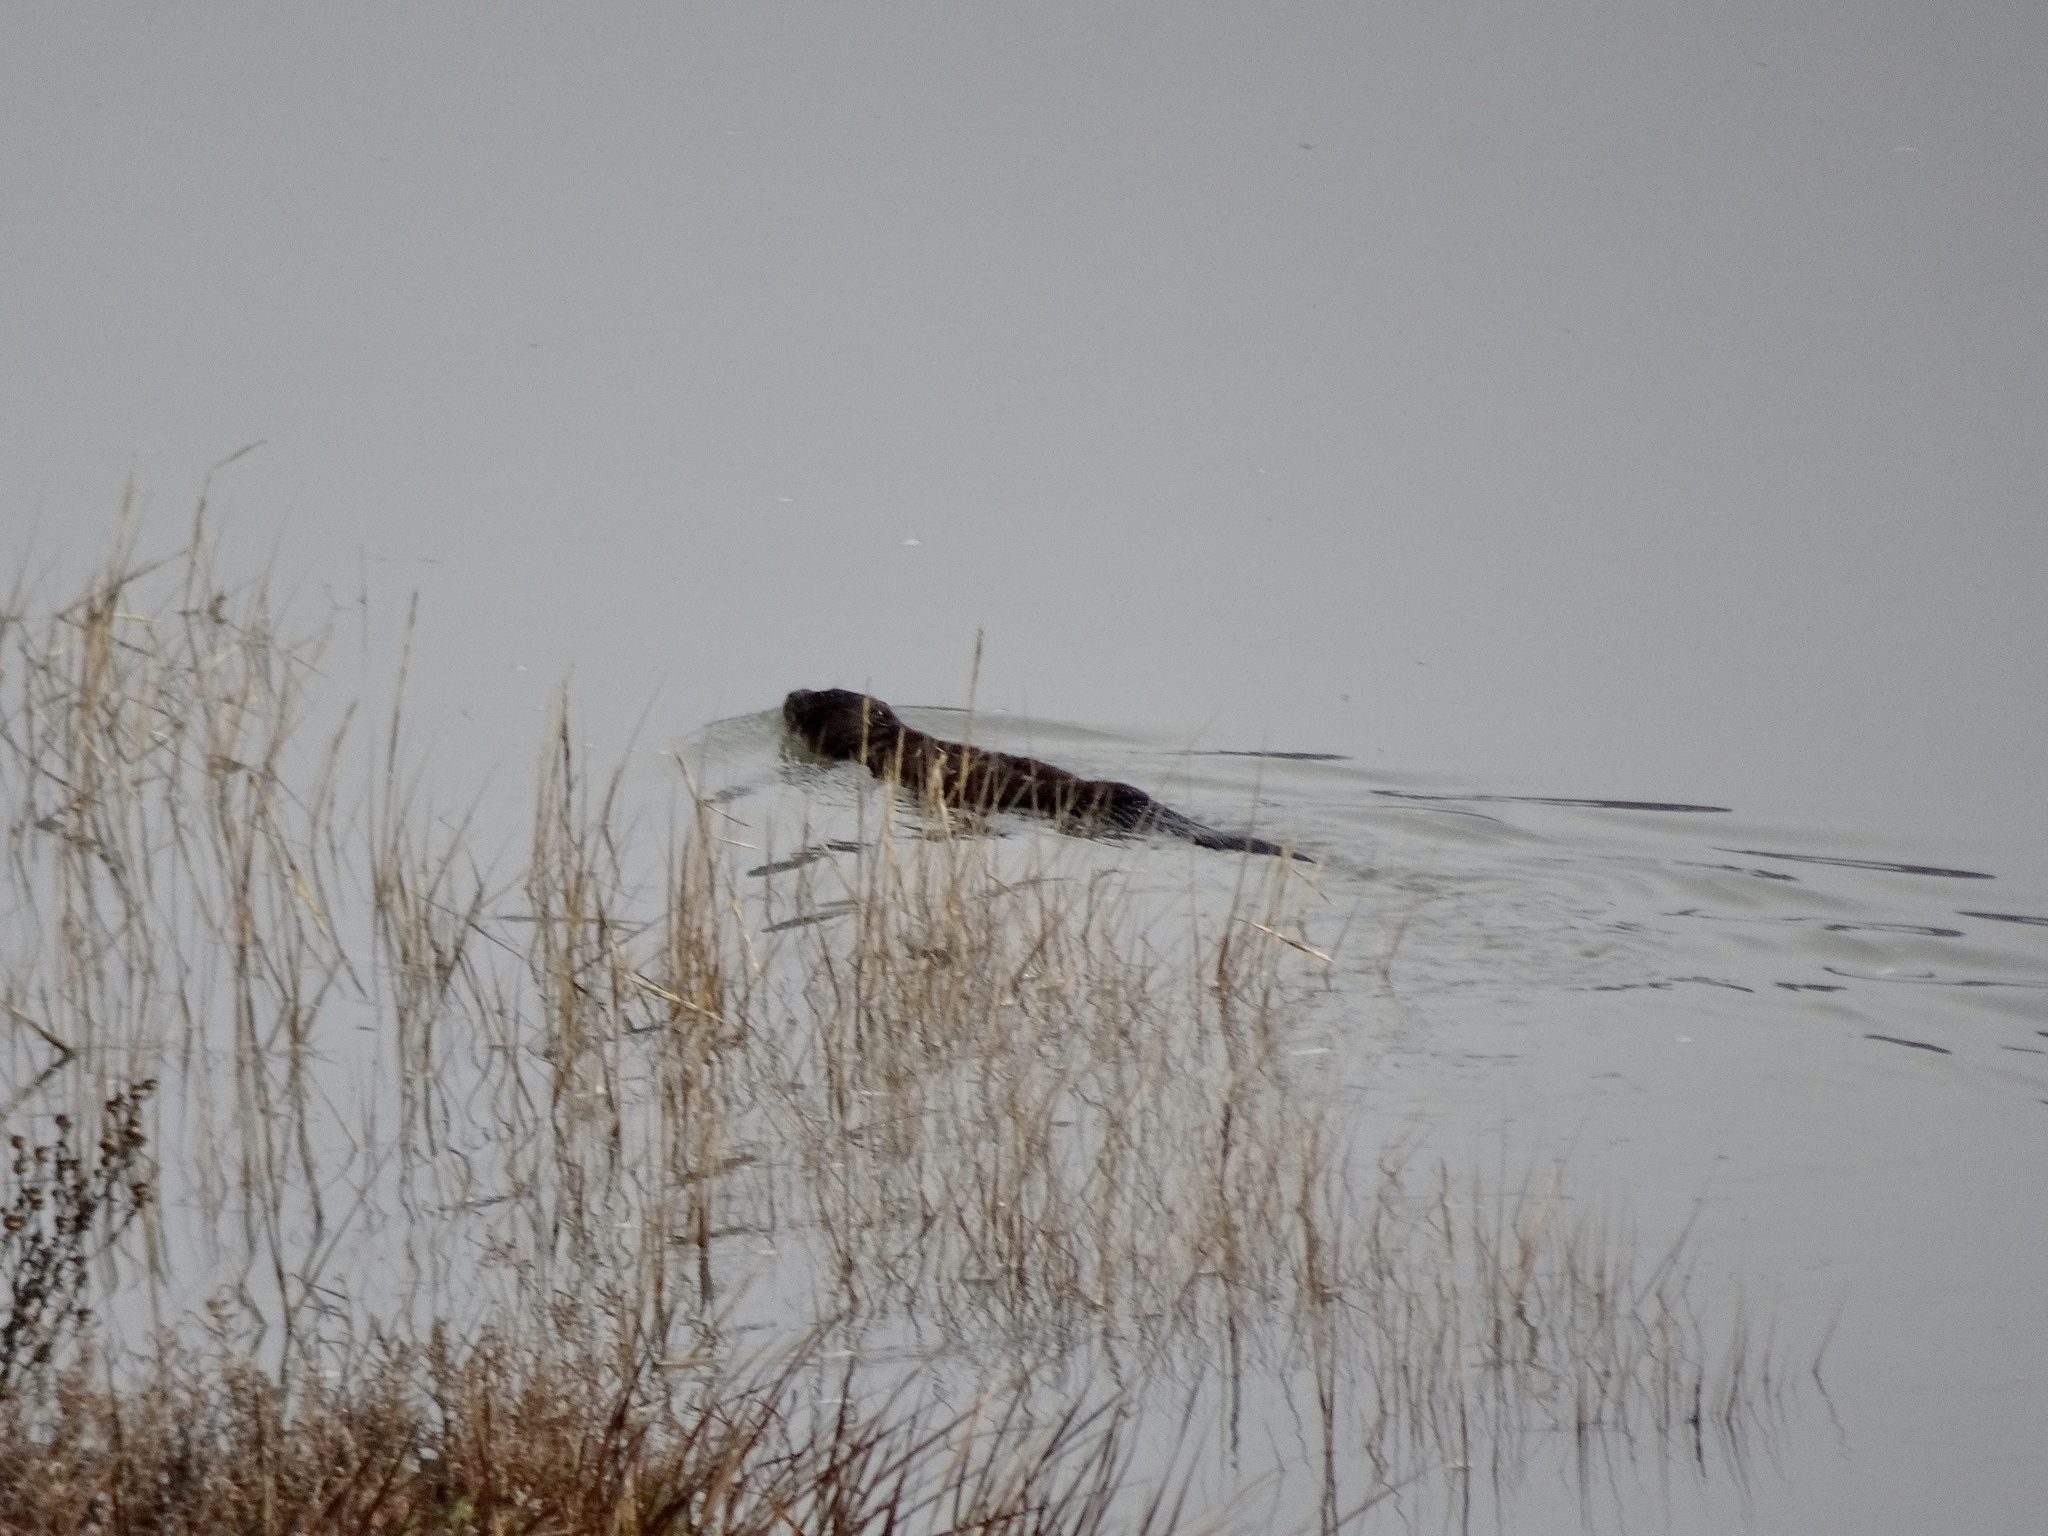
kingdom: Animalia
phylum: Chordata
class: Mammalia
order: Carnivora
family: Mustelidae
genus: Lontra
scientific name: Lontra canadensis
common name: North american river otter
